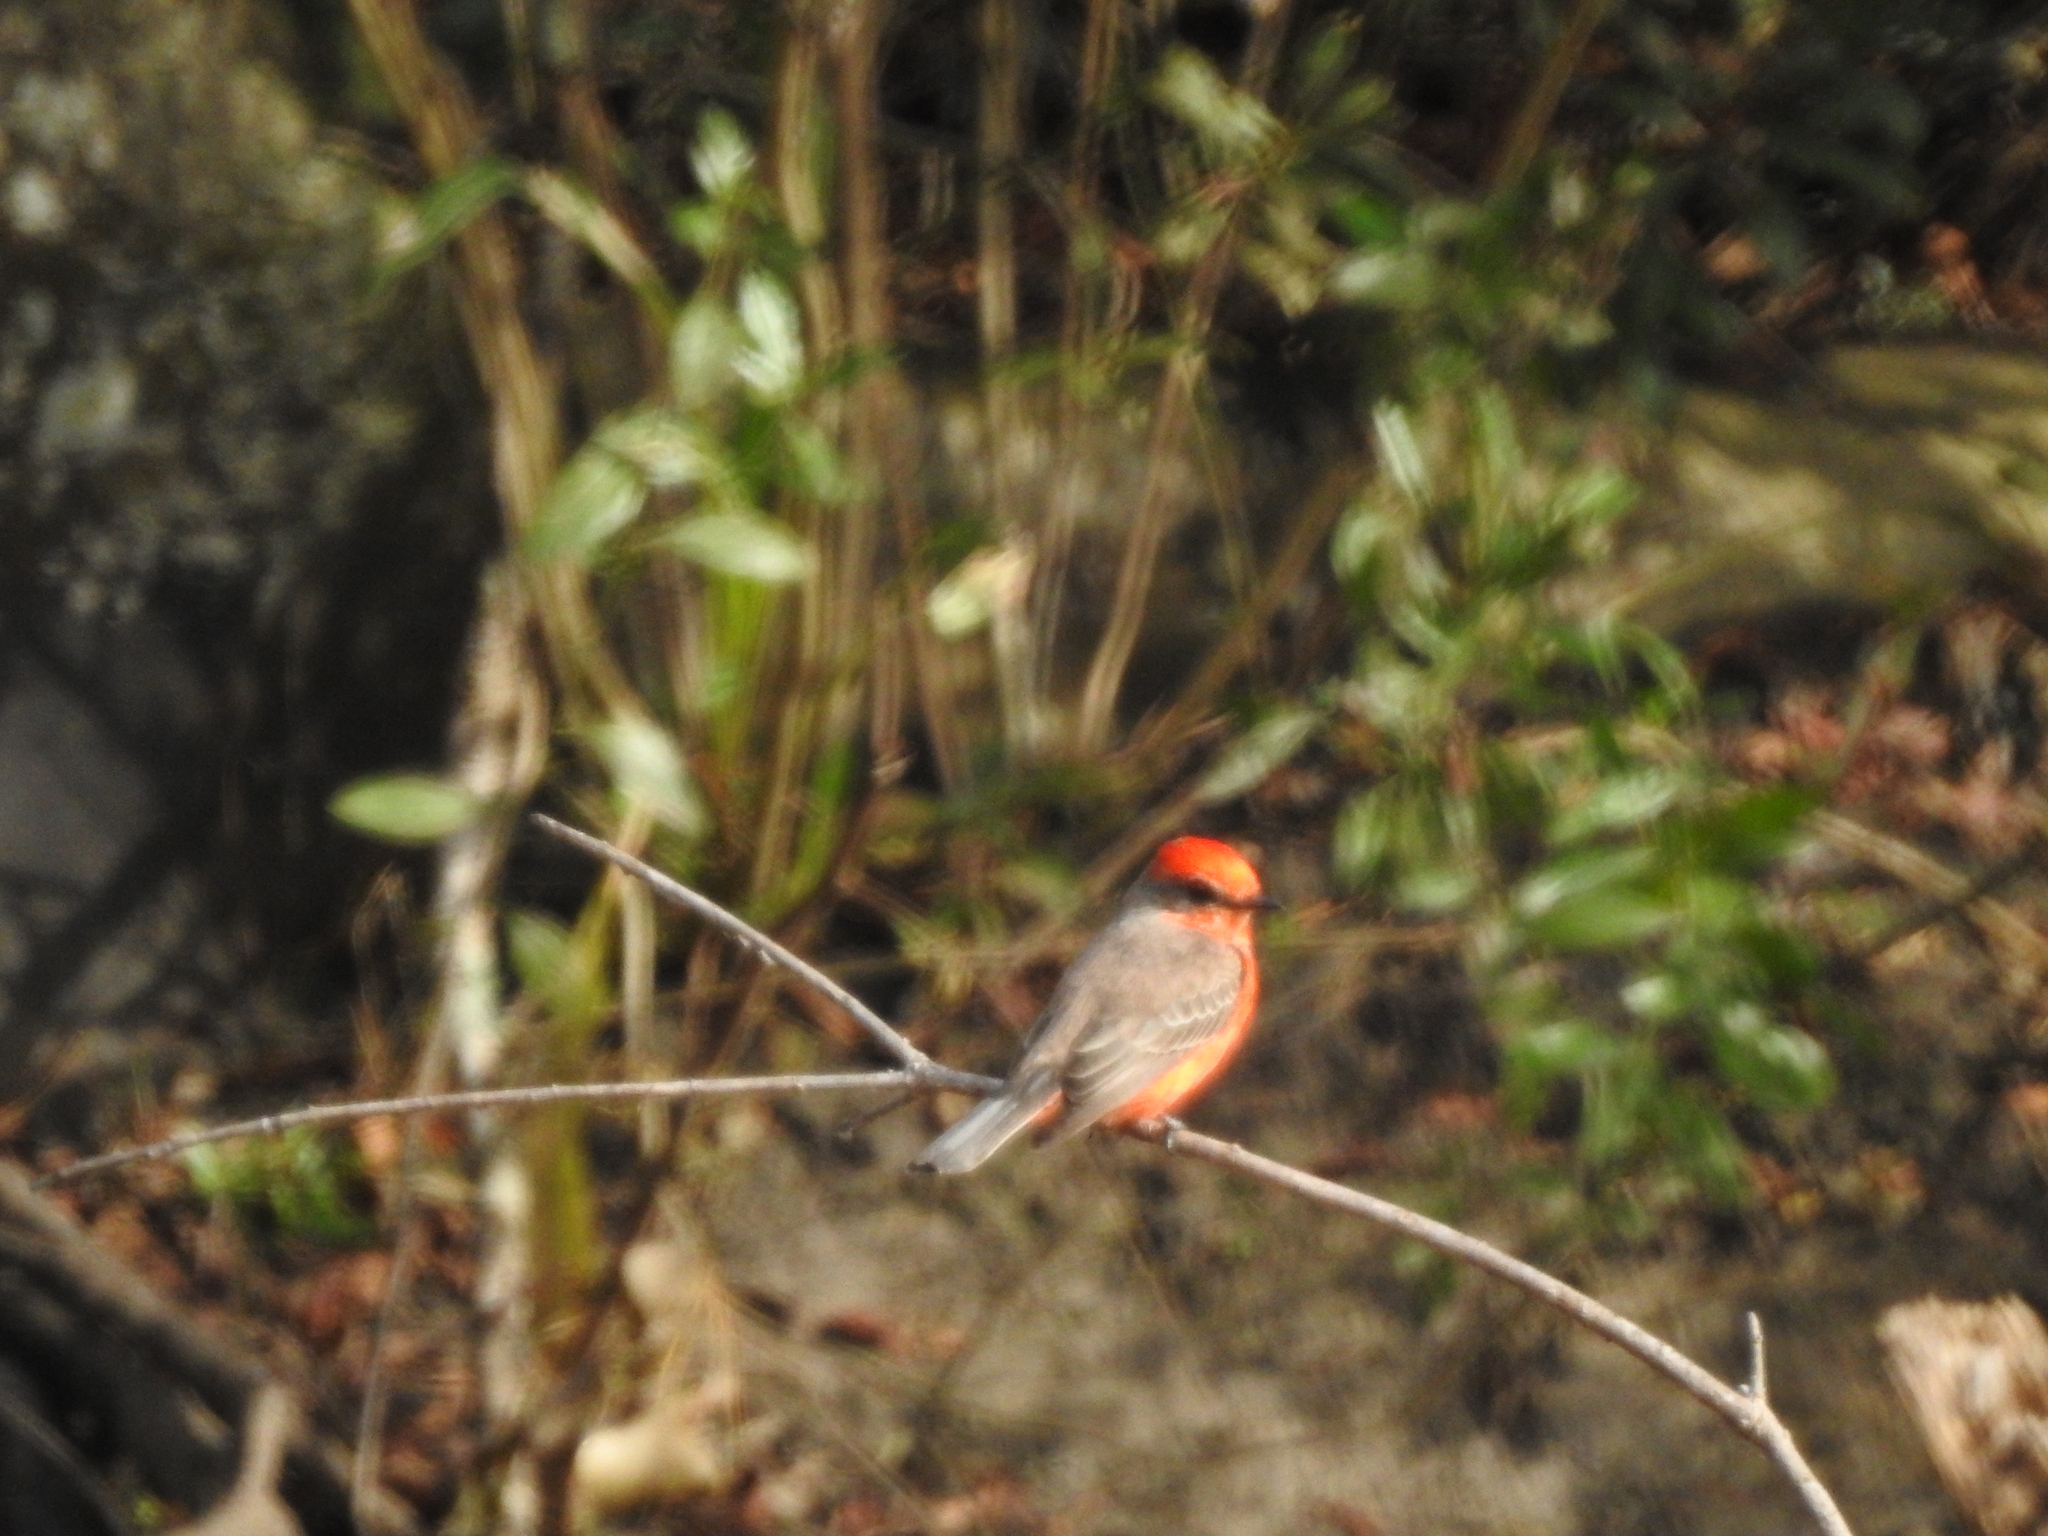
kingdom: Animalia
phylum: Chordata
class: Aves
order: Passeriformes
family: Tyrannidae
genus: Pyrocephalus
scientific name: Pyrocephalus rubinus
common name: Vermilion flycatcher
